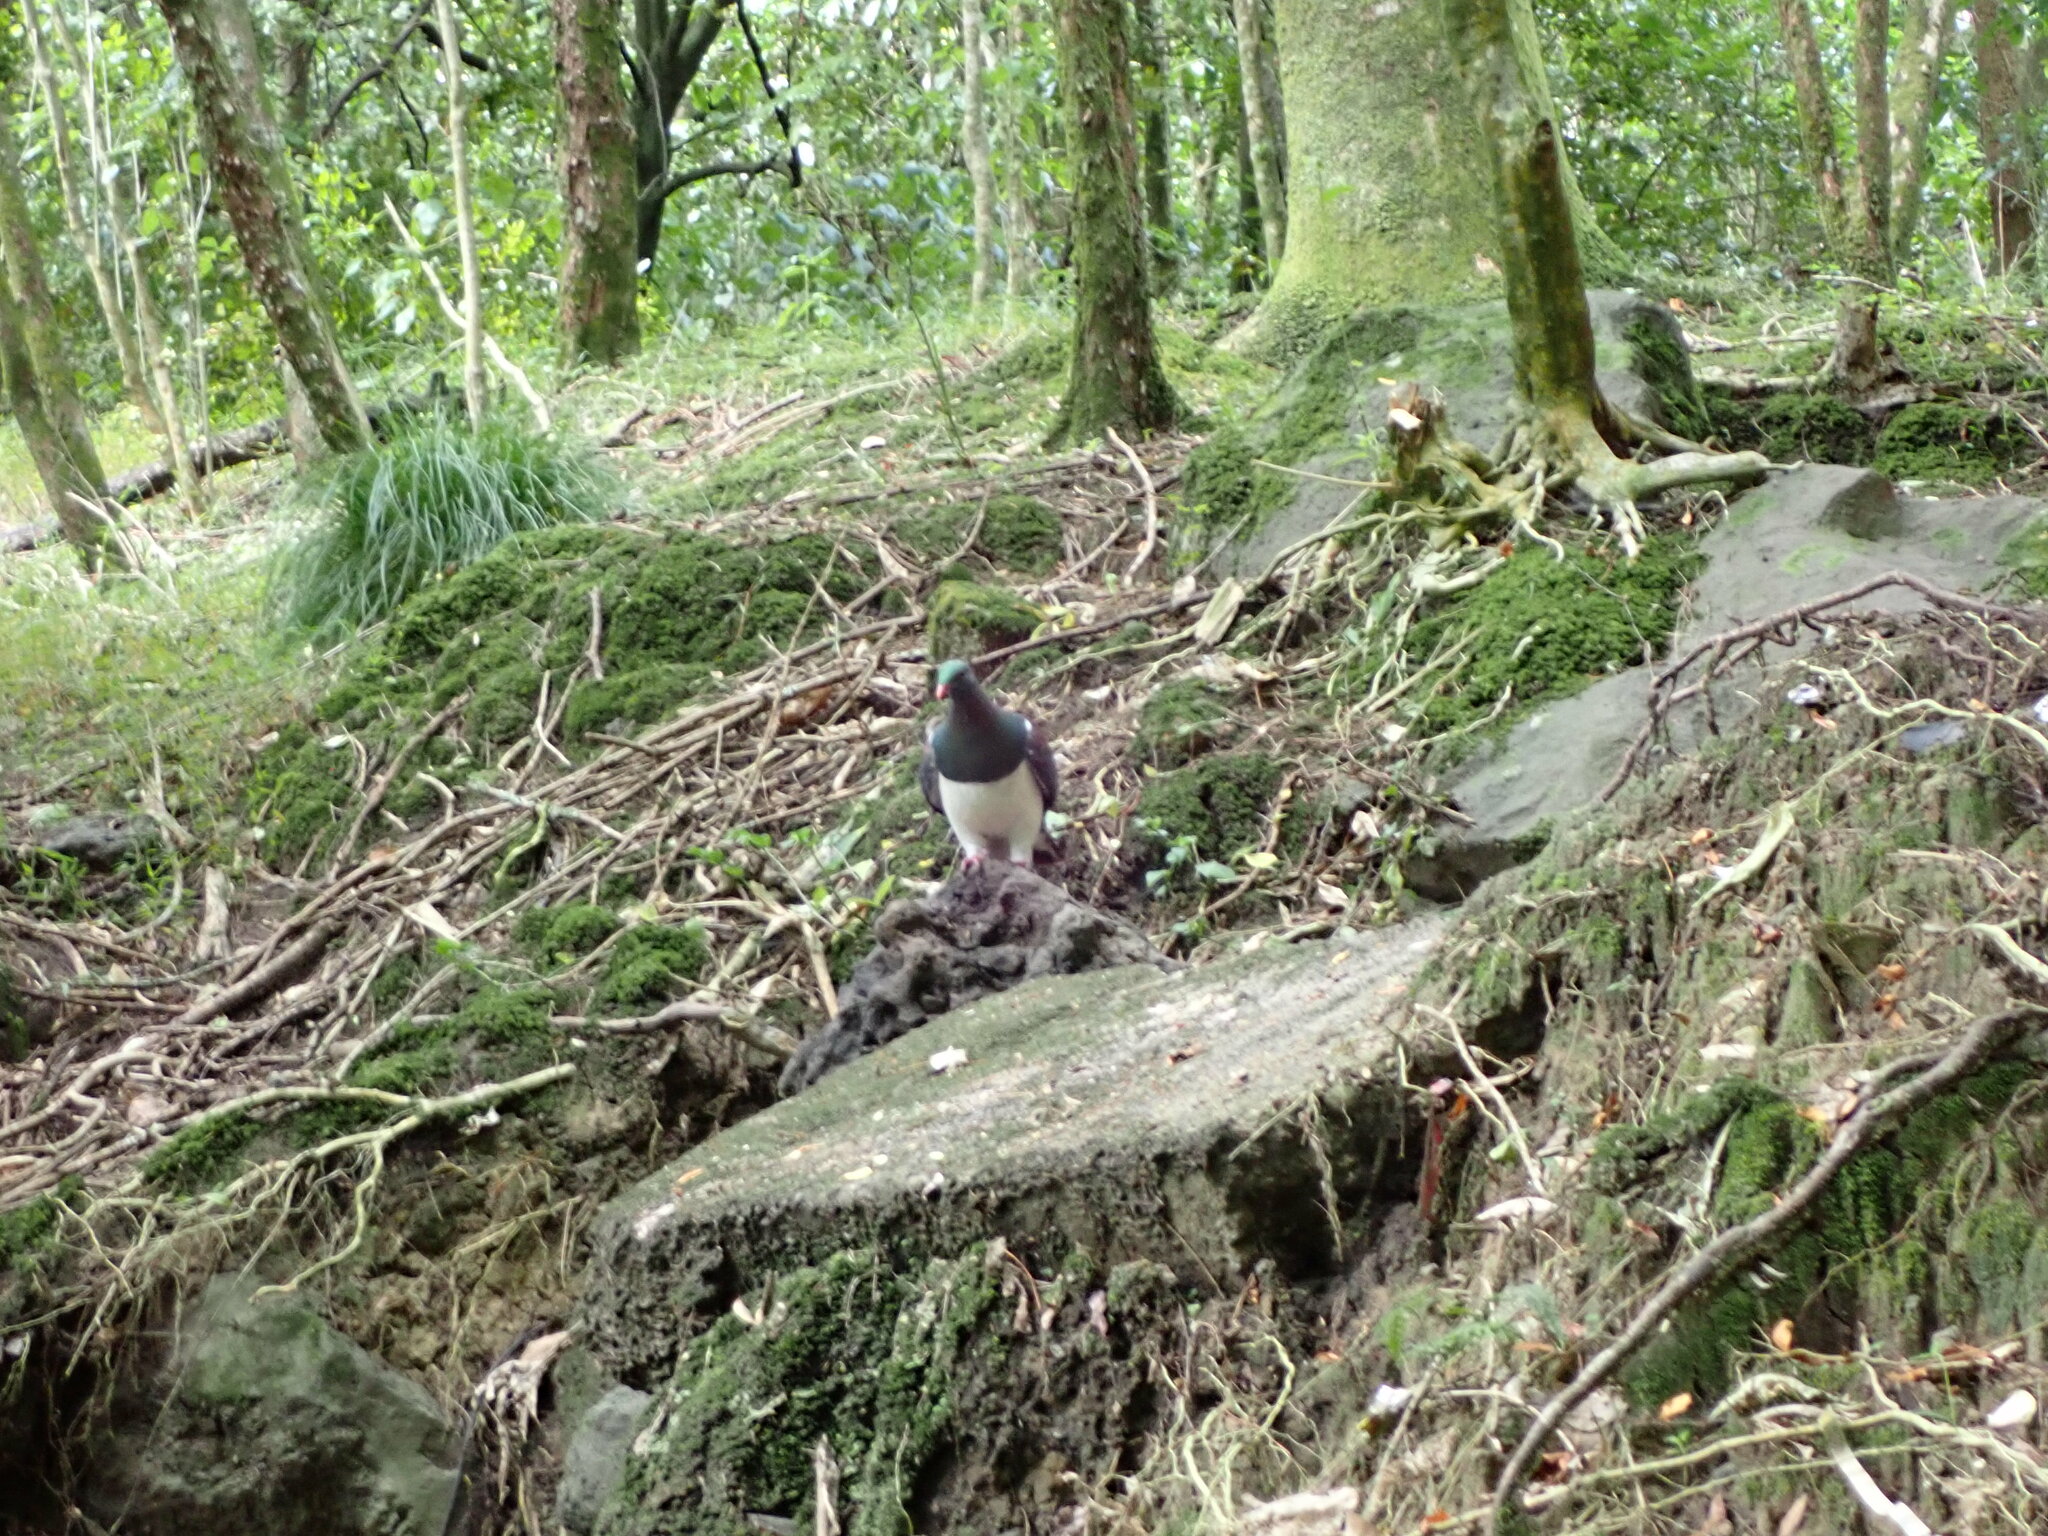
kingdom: Animalia
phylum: Chordata
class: Aves
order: Columbiformes
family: Columbidae
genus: Hemiphaga
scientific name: Hemiphaga novaeseelandiae
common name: New zealand pigeon
